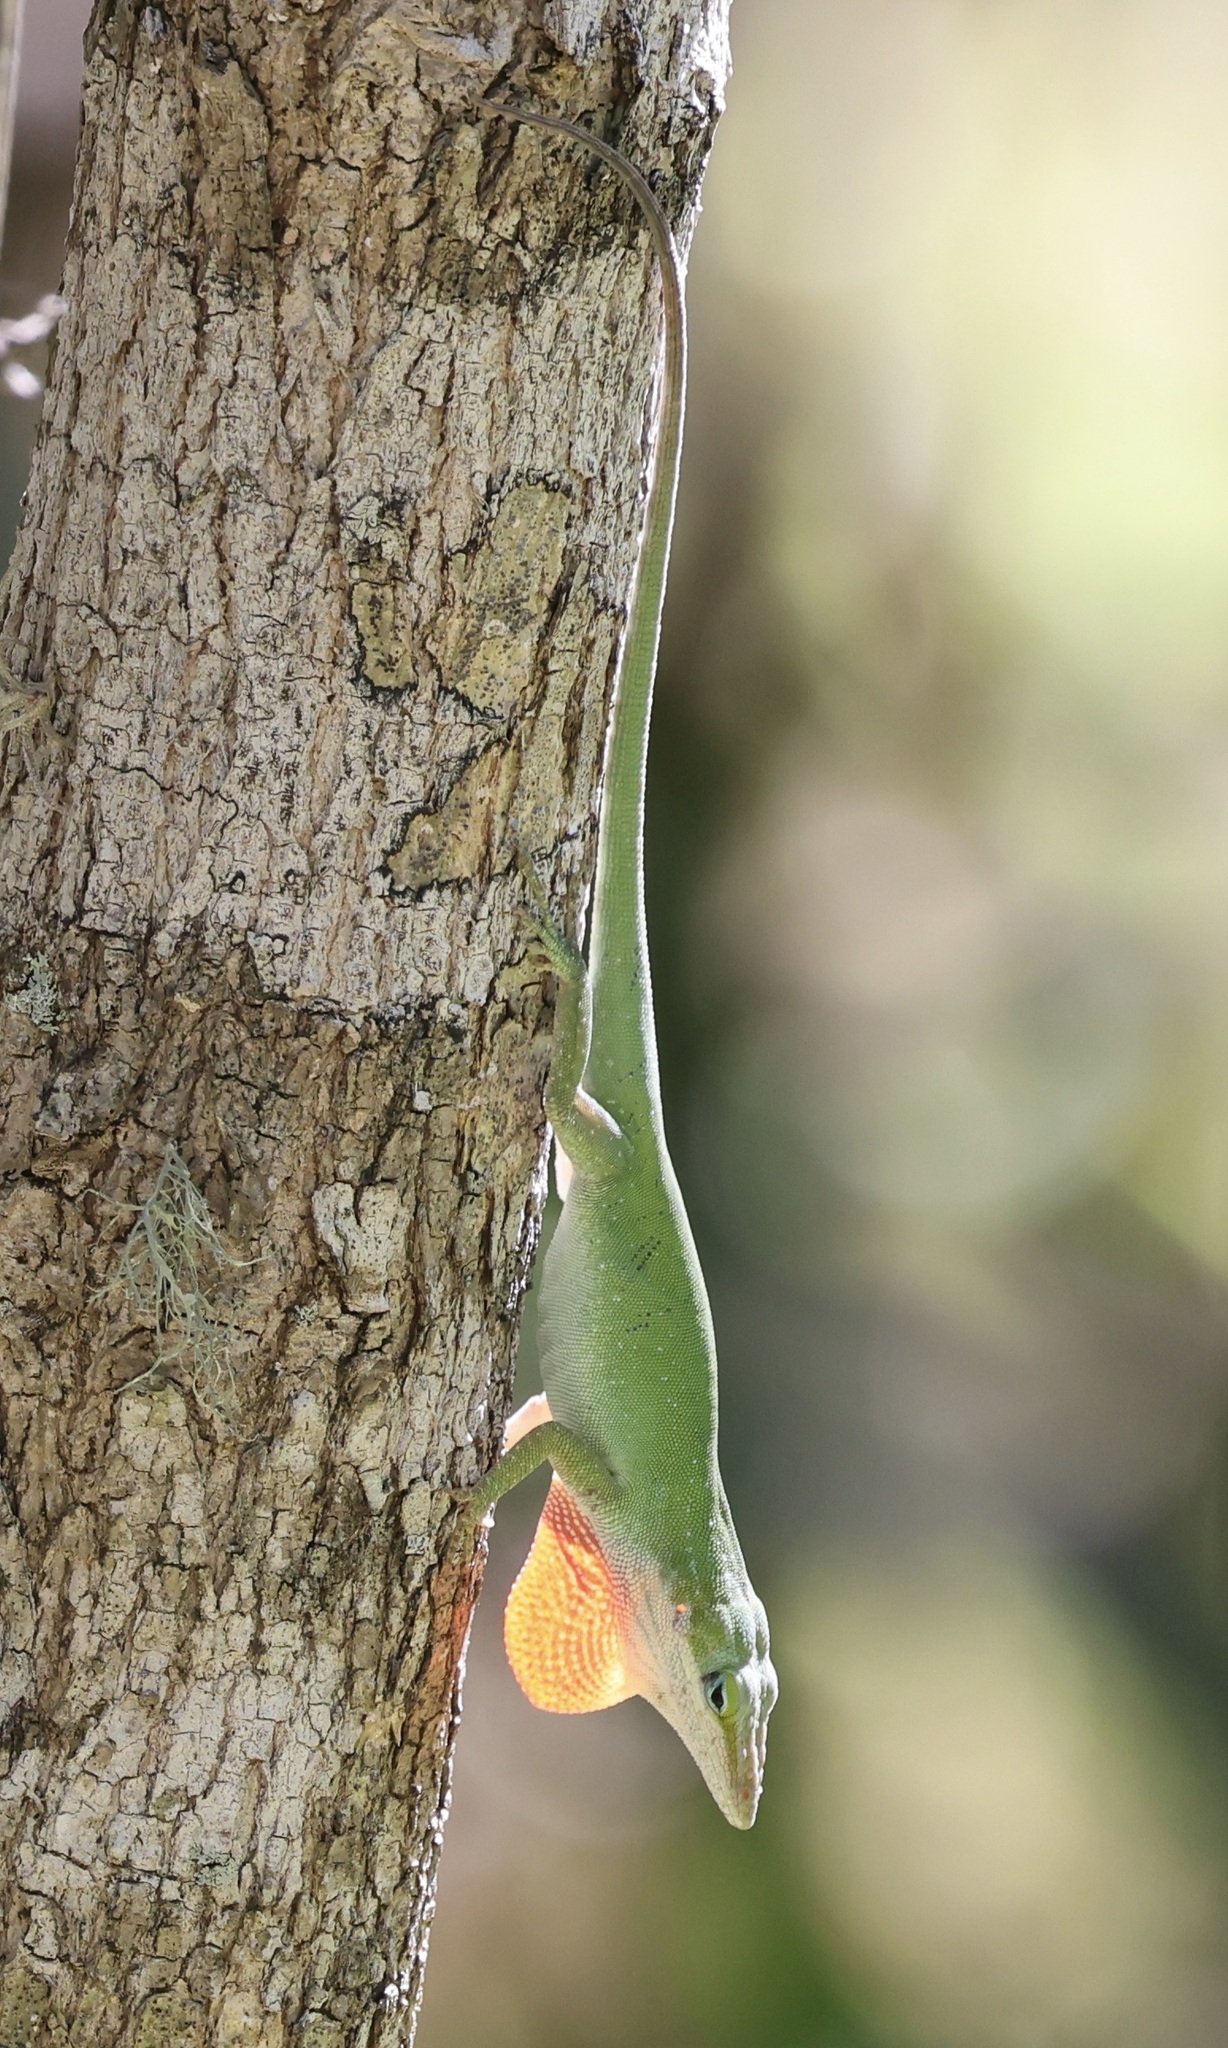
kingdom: Animalia
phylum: Chordata
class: Squamata
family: Dactyloidae
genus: Anolis
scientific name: Anolis carolinensis
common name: Green anole
